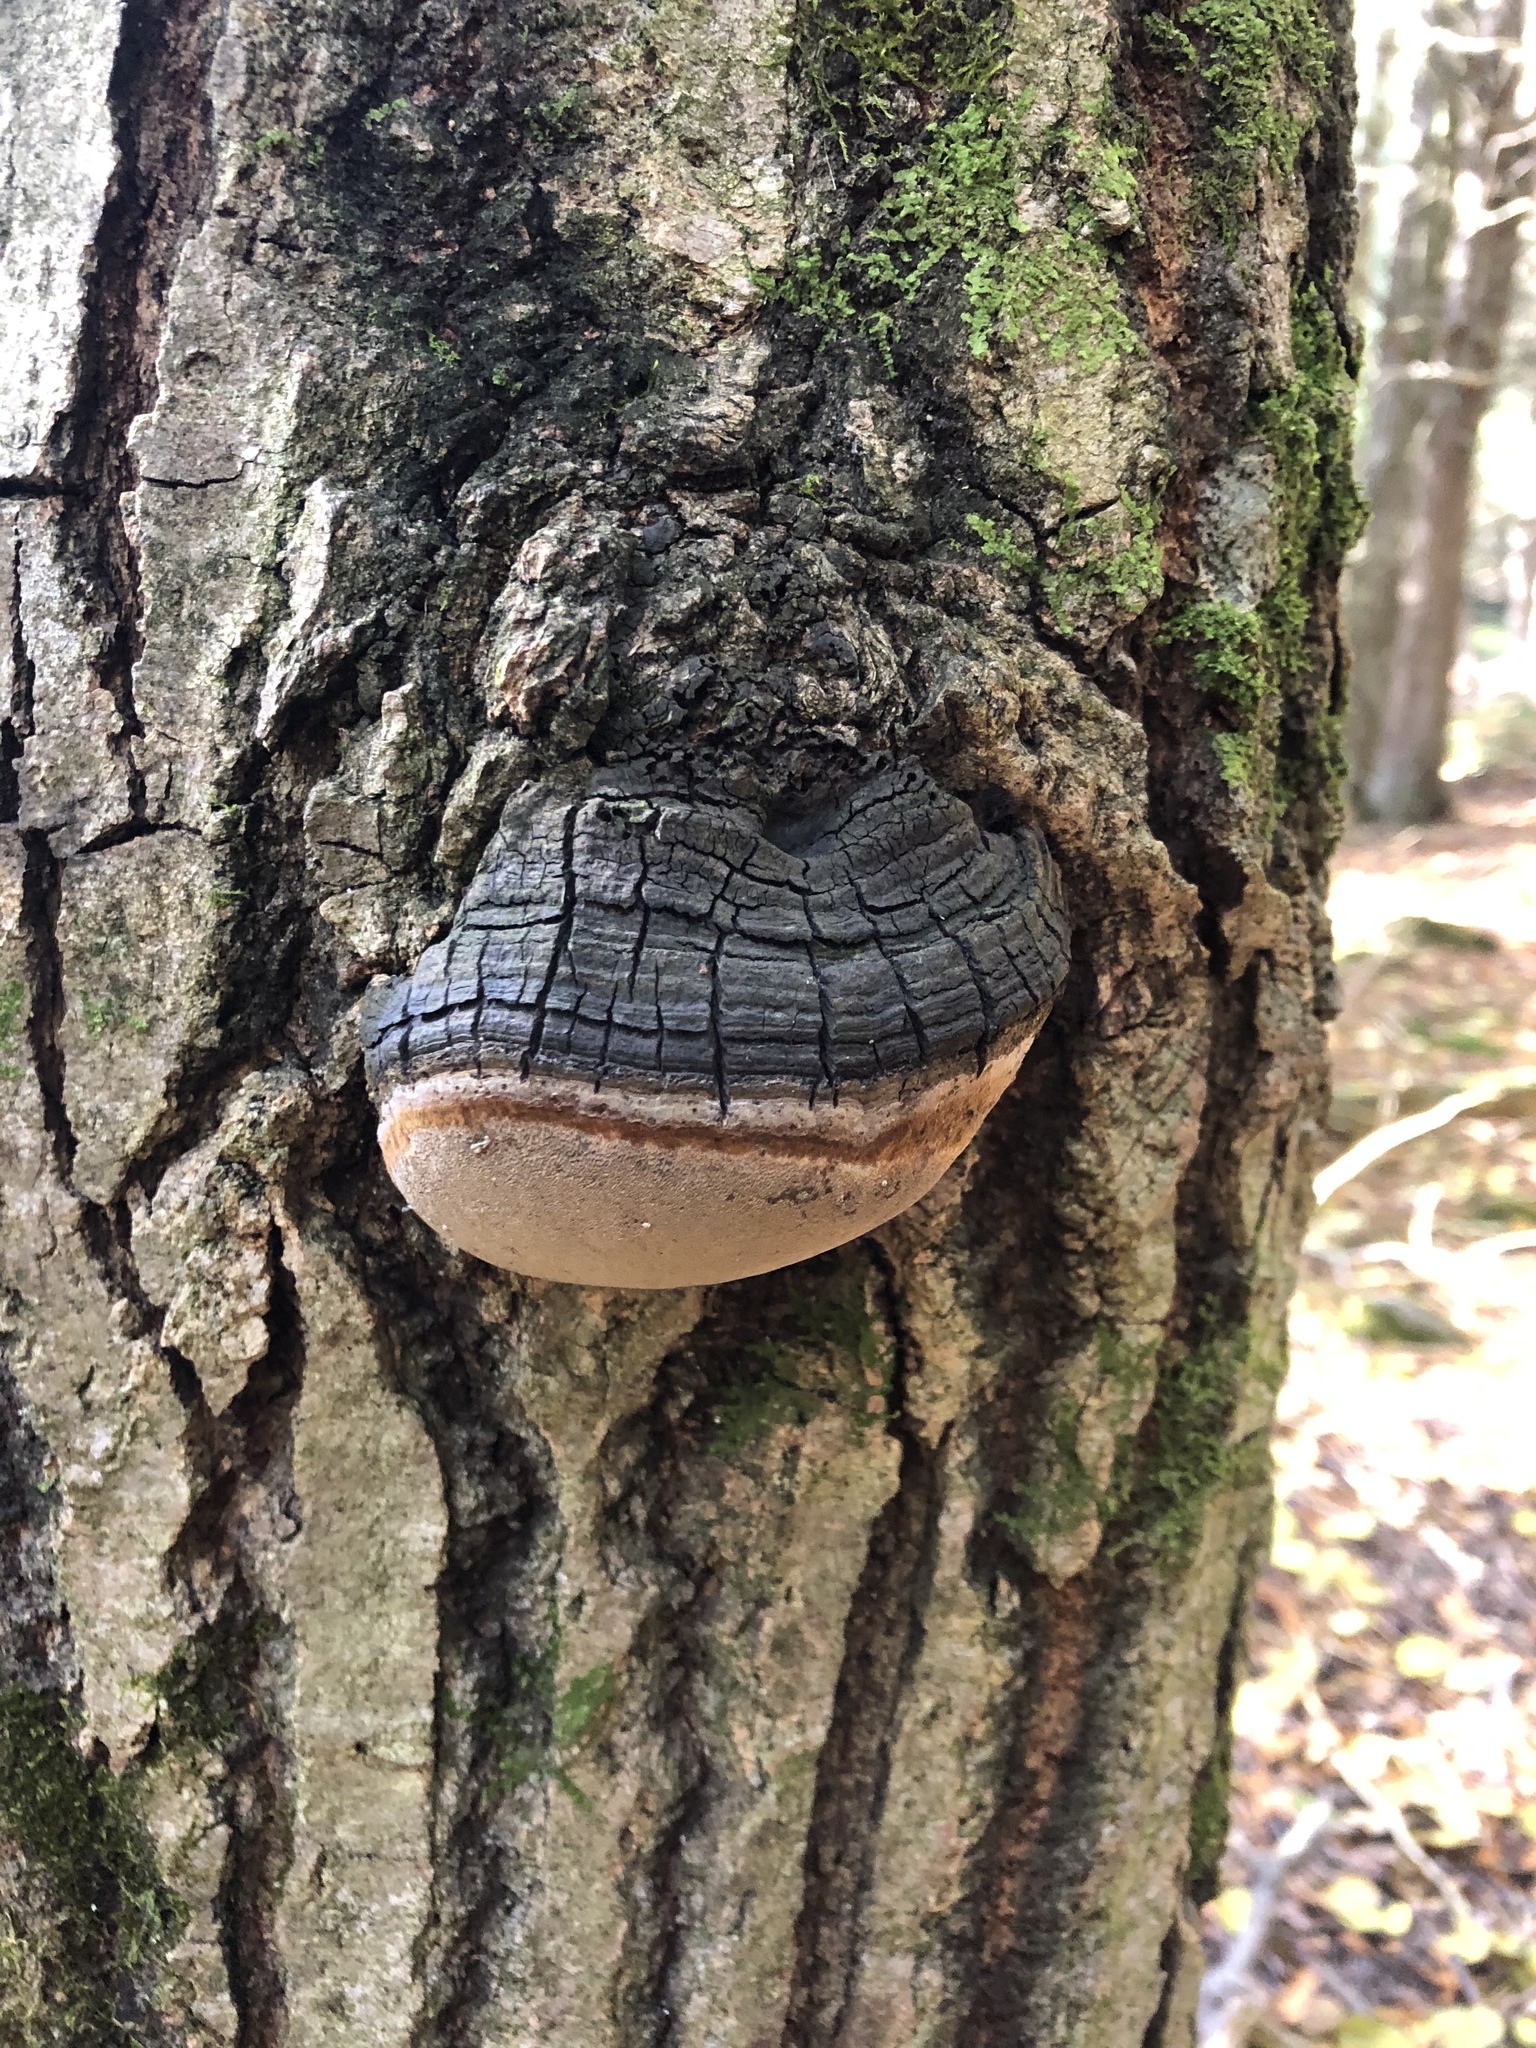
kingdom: Fungi
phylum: Basidiomycota
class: Agaricomycetes
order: Hymenochaetales
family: Hymenochaetaceae
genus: Phellinus
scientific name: Phellinus tremulae
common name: Aspen bracket
